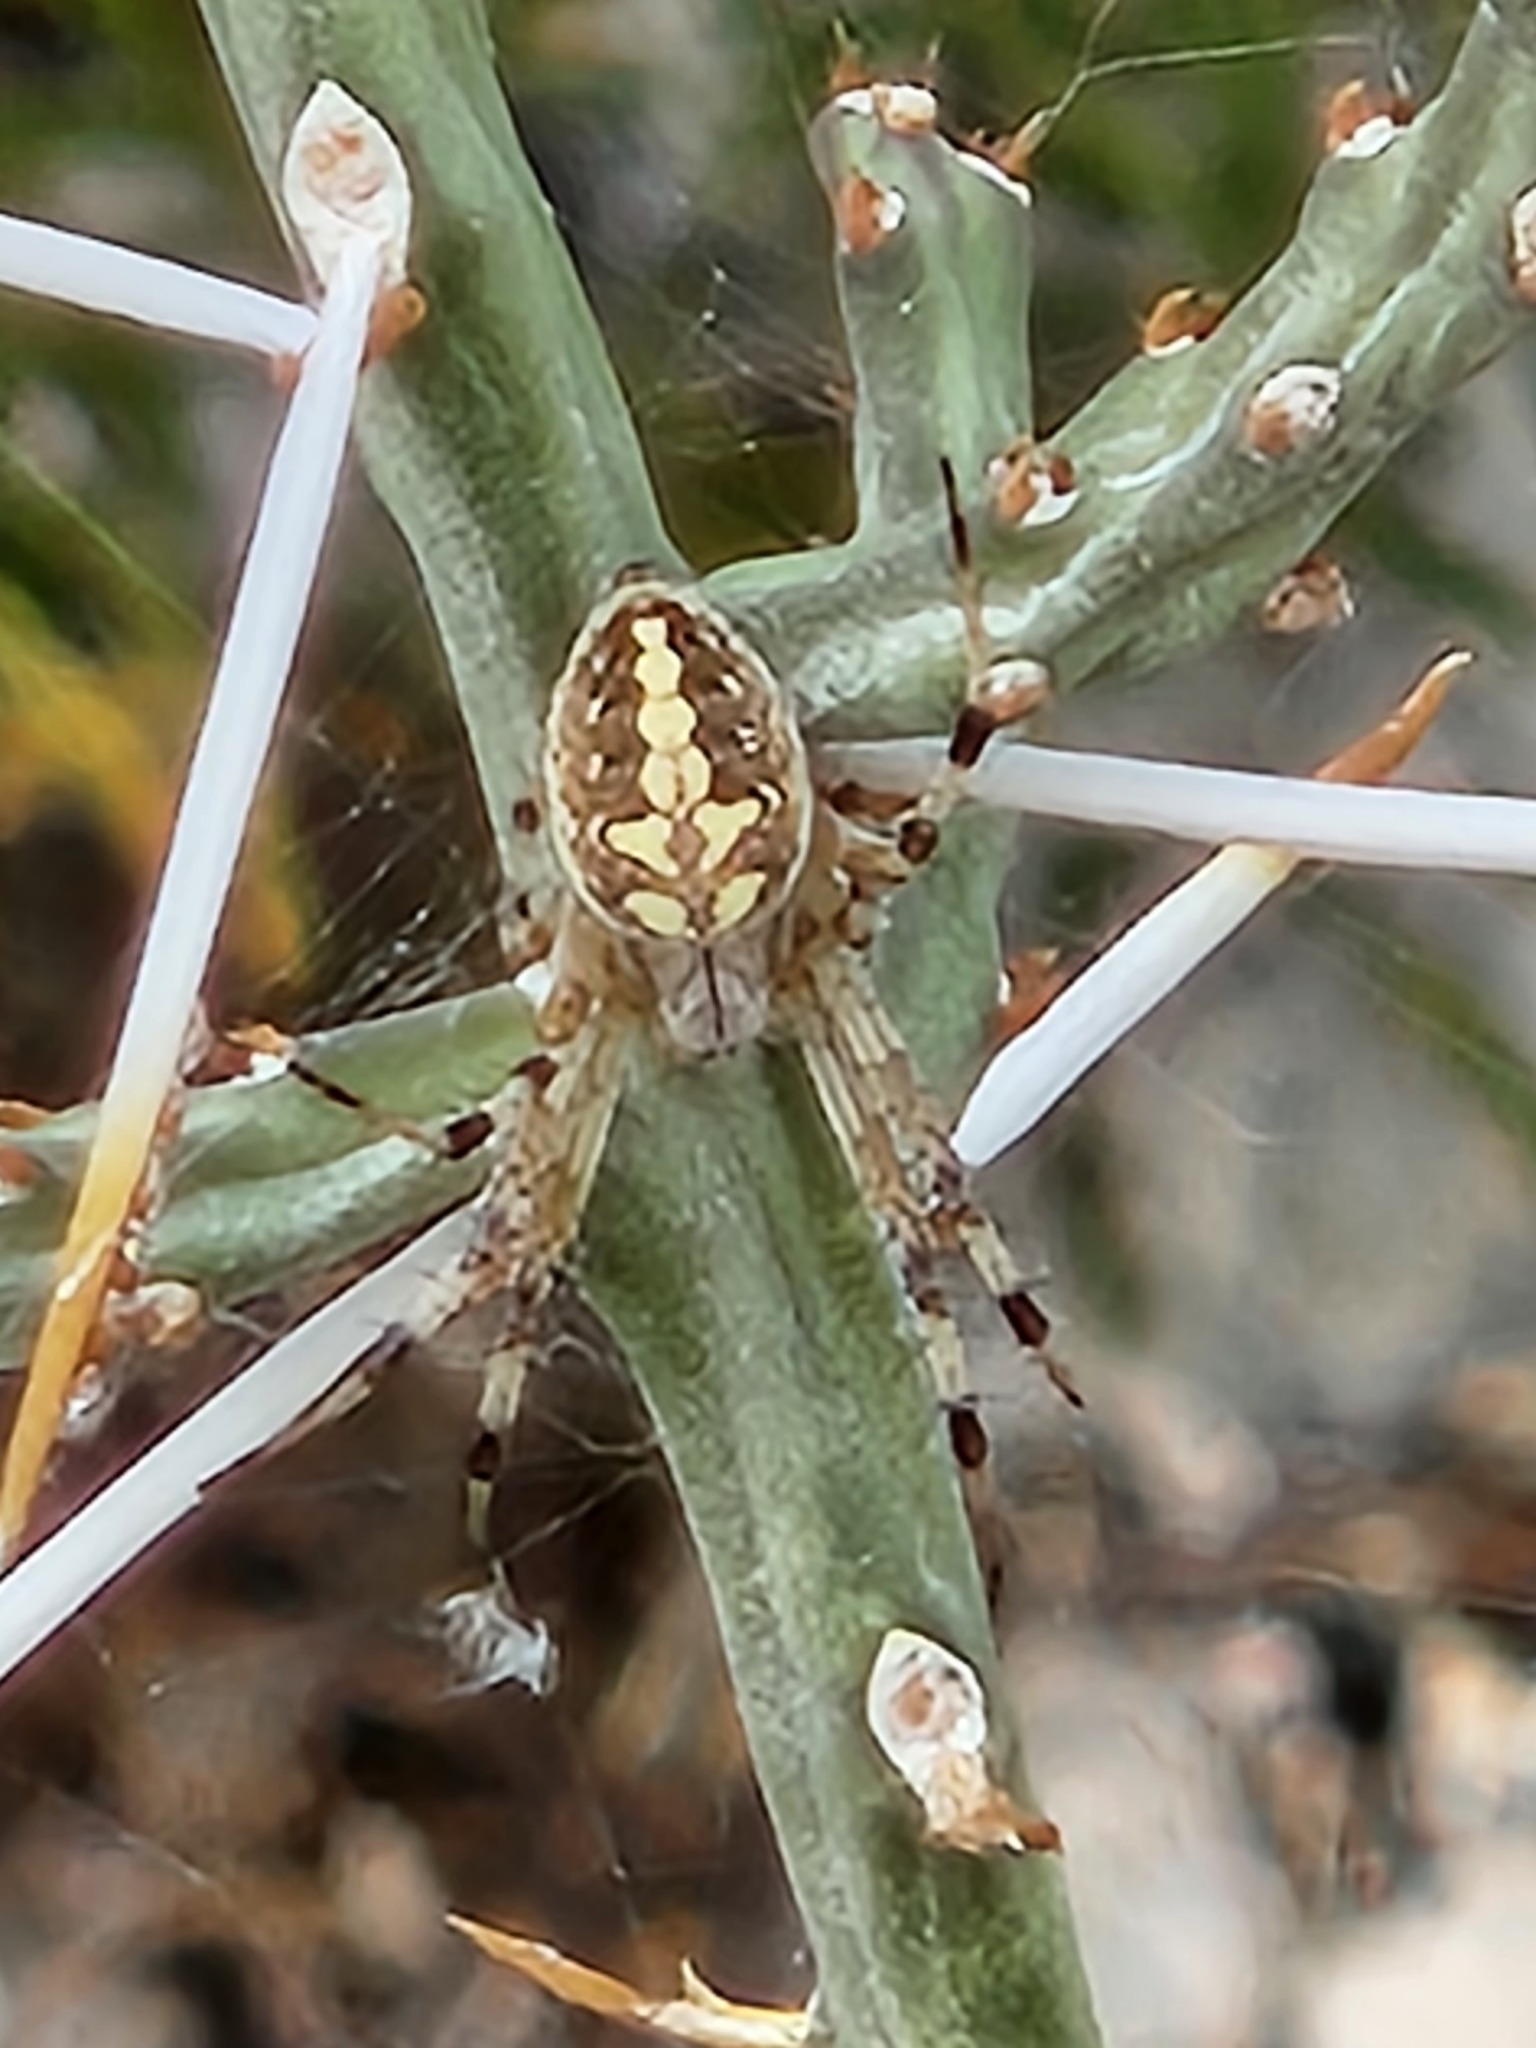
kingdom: Animalia
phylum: Arthropoda
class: Arachnida
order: Araneae
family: Araneidae
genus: Neoscona
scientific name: Neoscona oaxacensis
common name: Orb weavers
